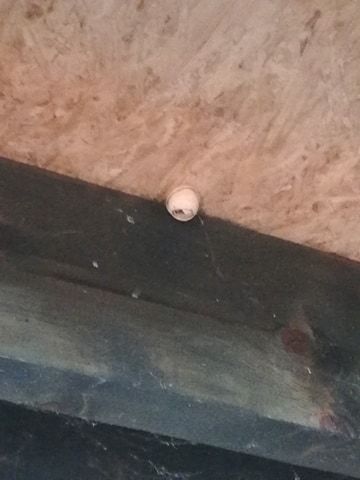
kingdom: Animalia
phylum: Arthropoda
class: Insecta
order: Hymenoptera
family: Vespidae
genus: Vespa
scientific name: Vespa crabro
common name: Hornet
